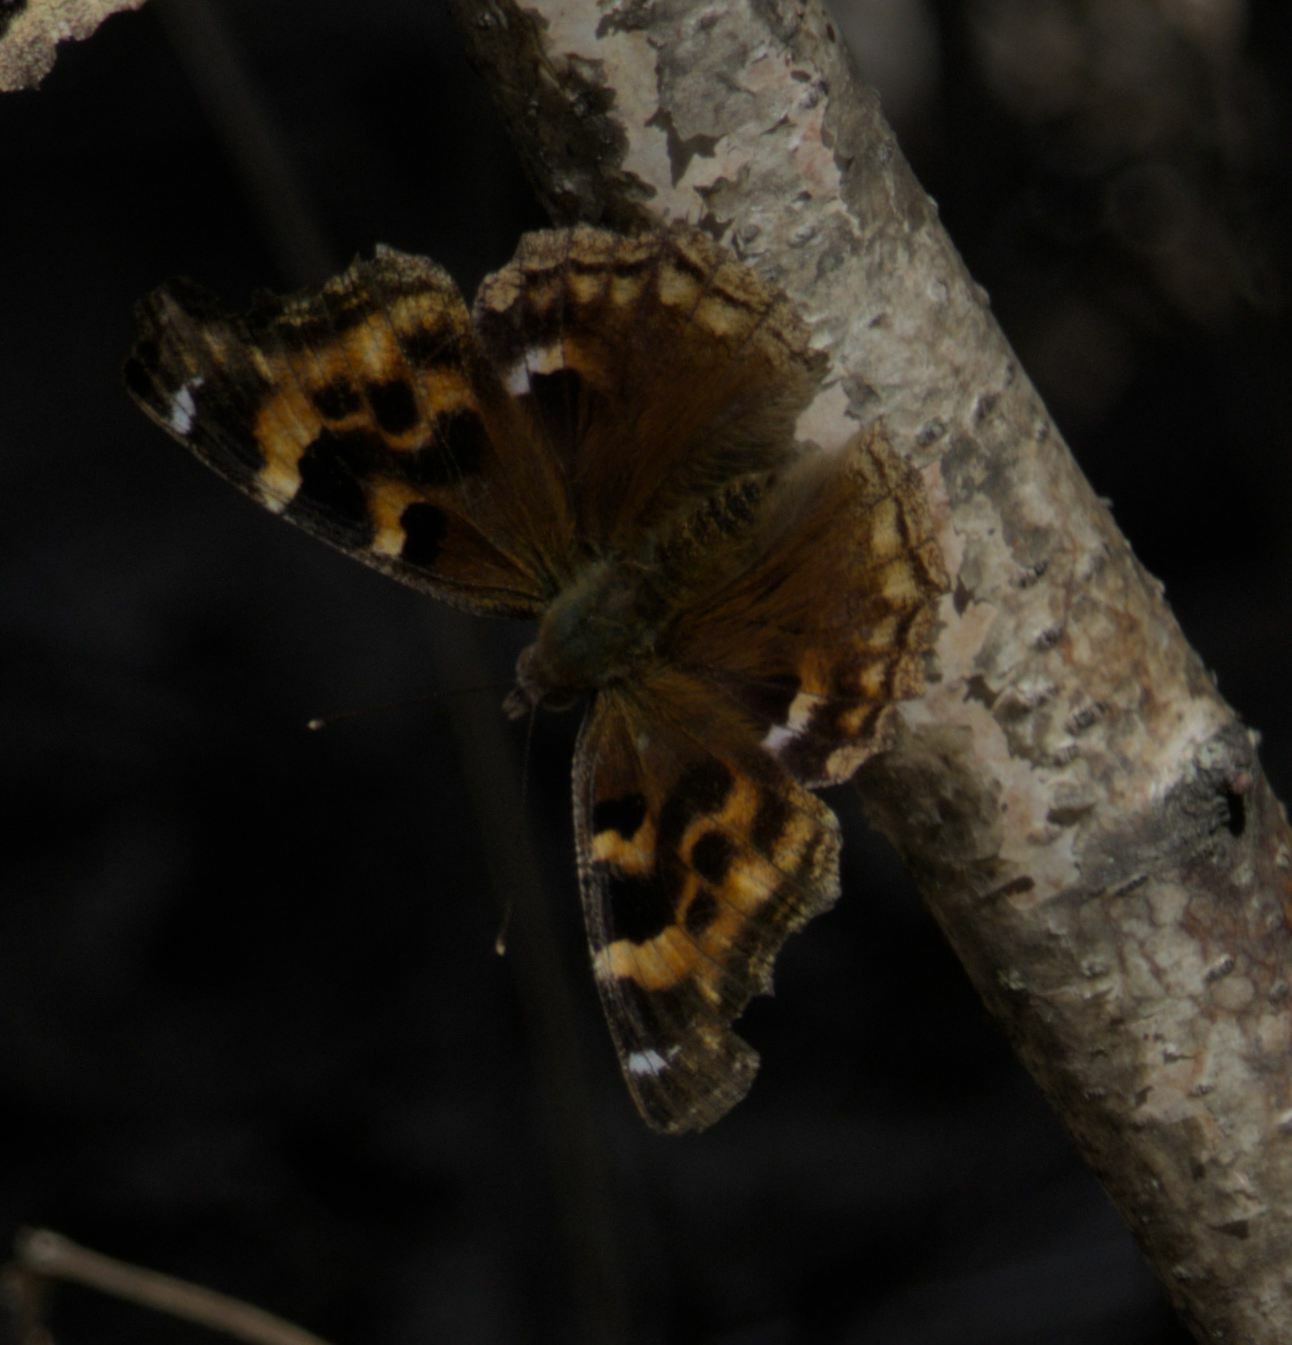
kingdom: Animalia
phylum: Arthropoda
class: Insecta
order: Lepidoptera
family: Nymphalidae
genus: Polygonia
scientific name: Polygonia vaualbum
